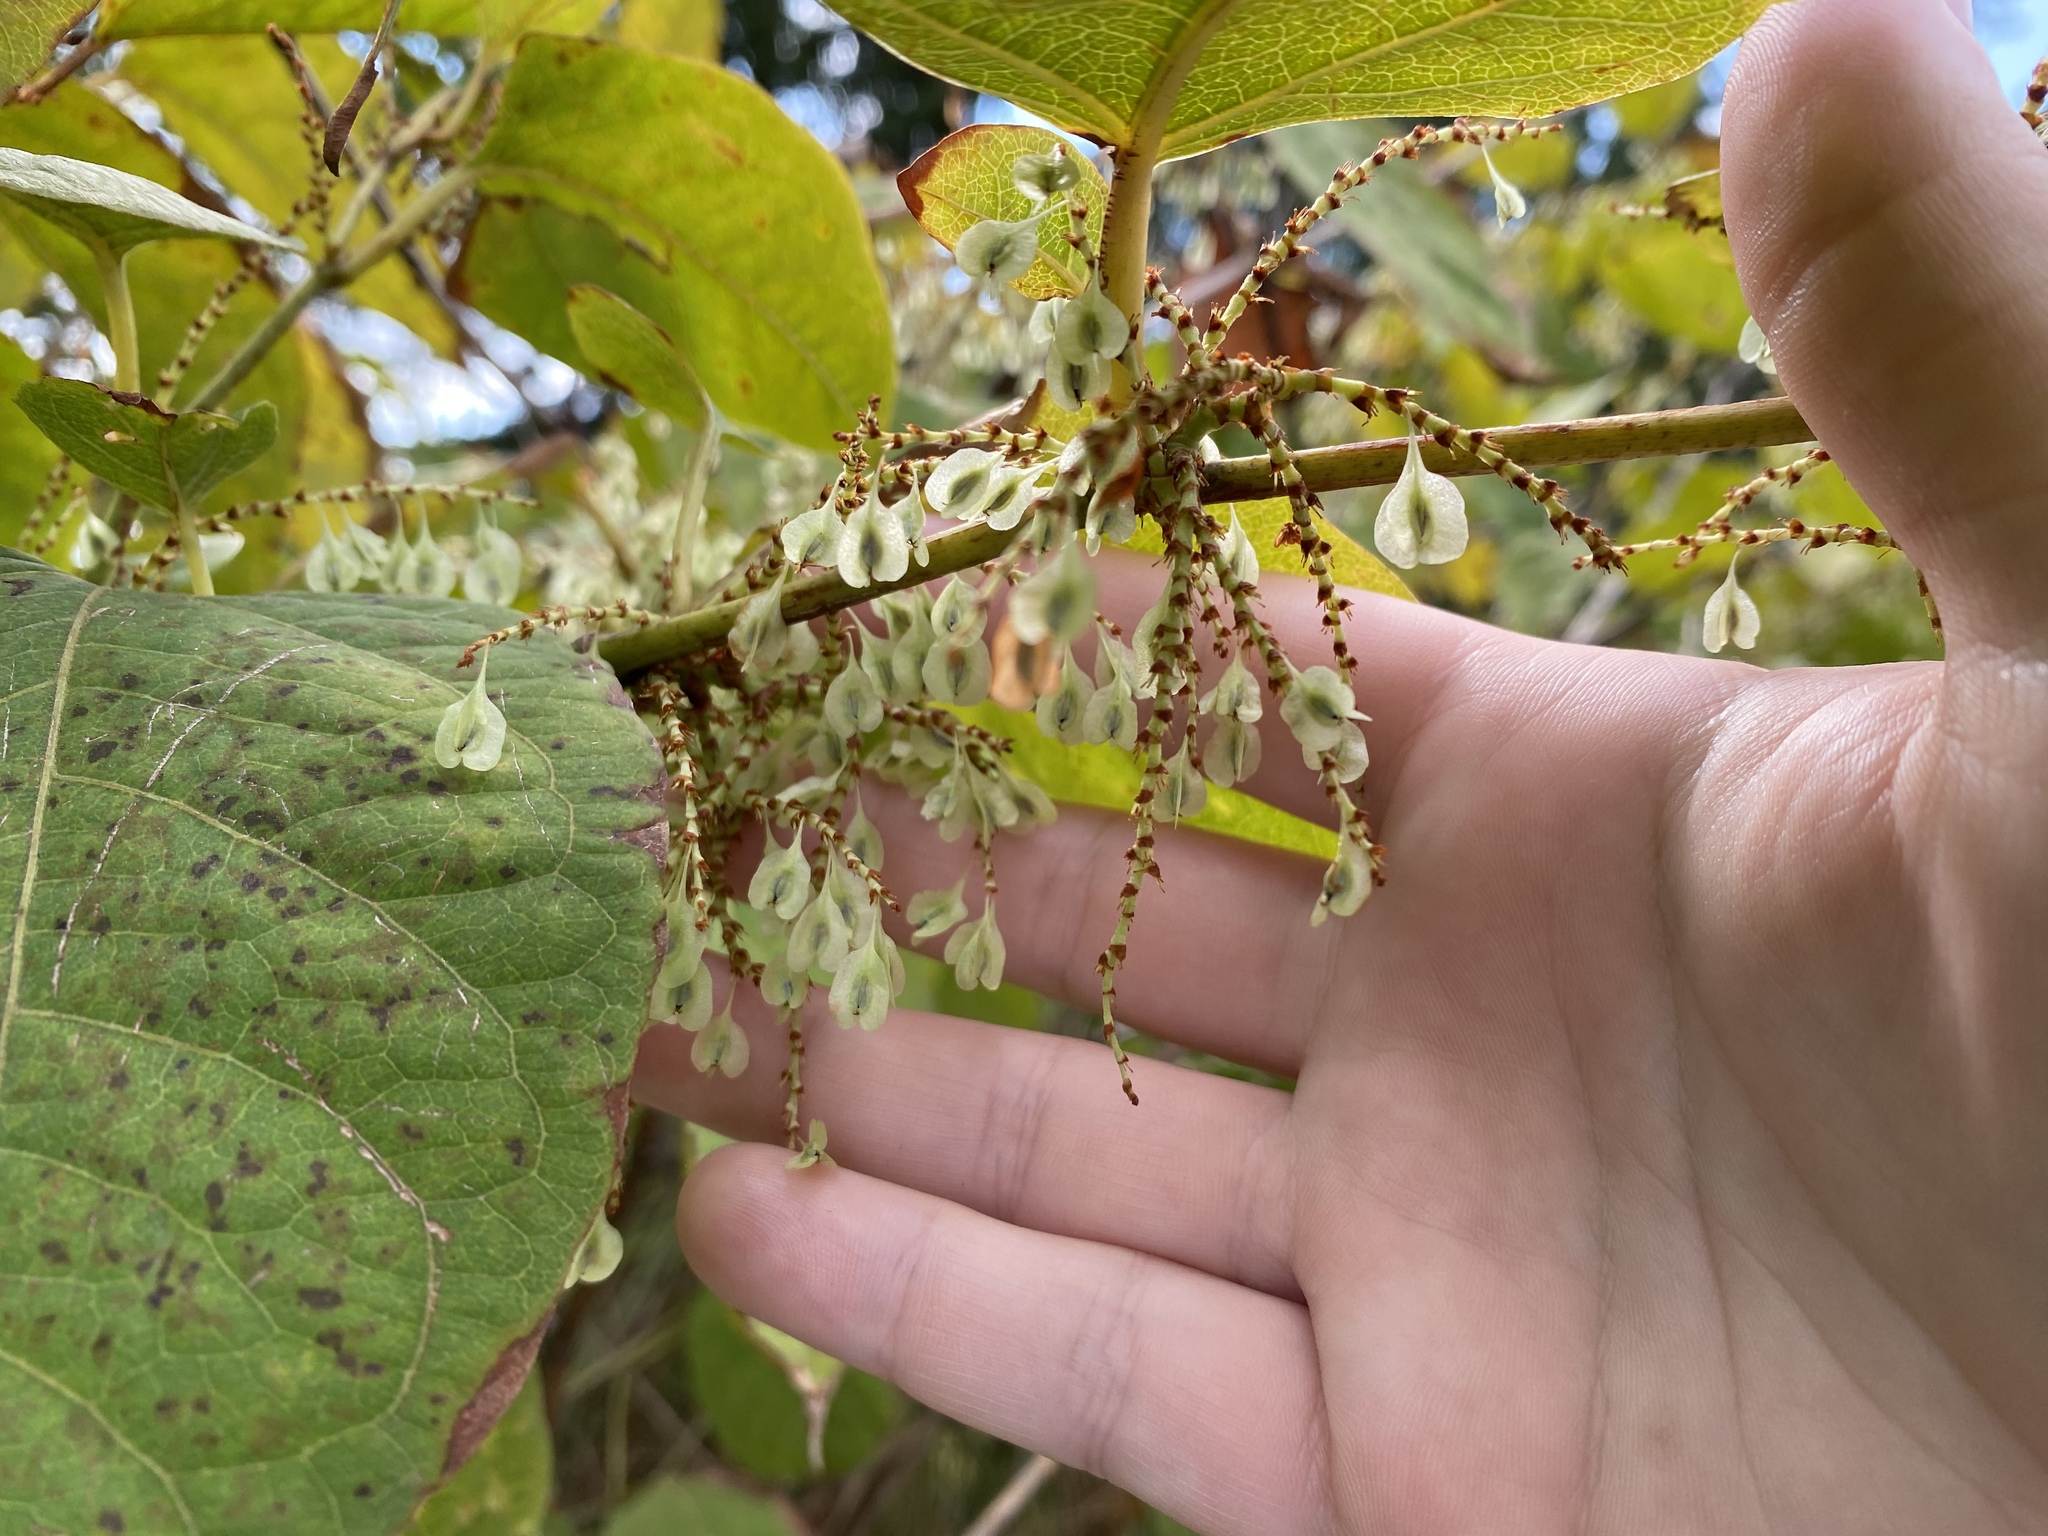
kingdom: Plantae
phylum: Tracheophyta
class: Magnoliopsida
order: Caryophyllales
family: Polygonaceae
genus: Reynoutria
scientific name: Reynoutria japonica
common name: Japanese knotweed
